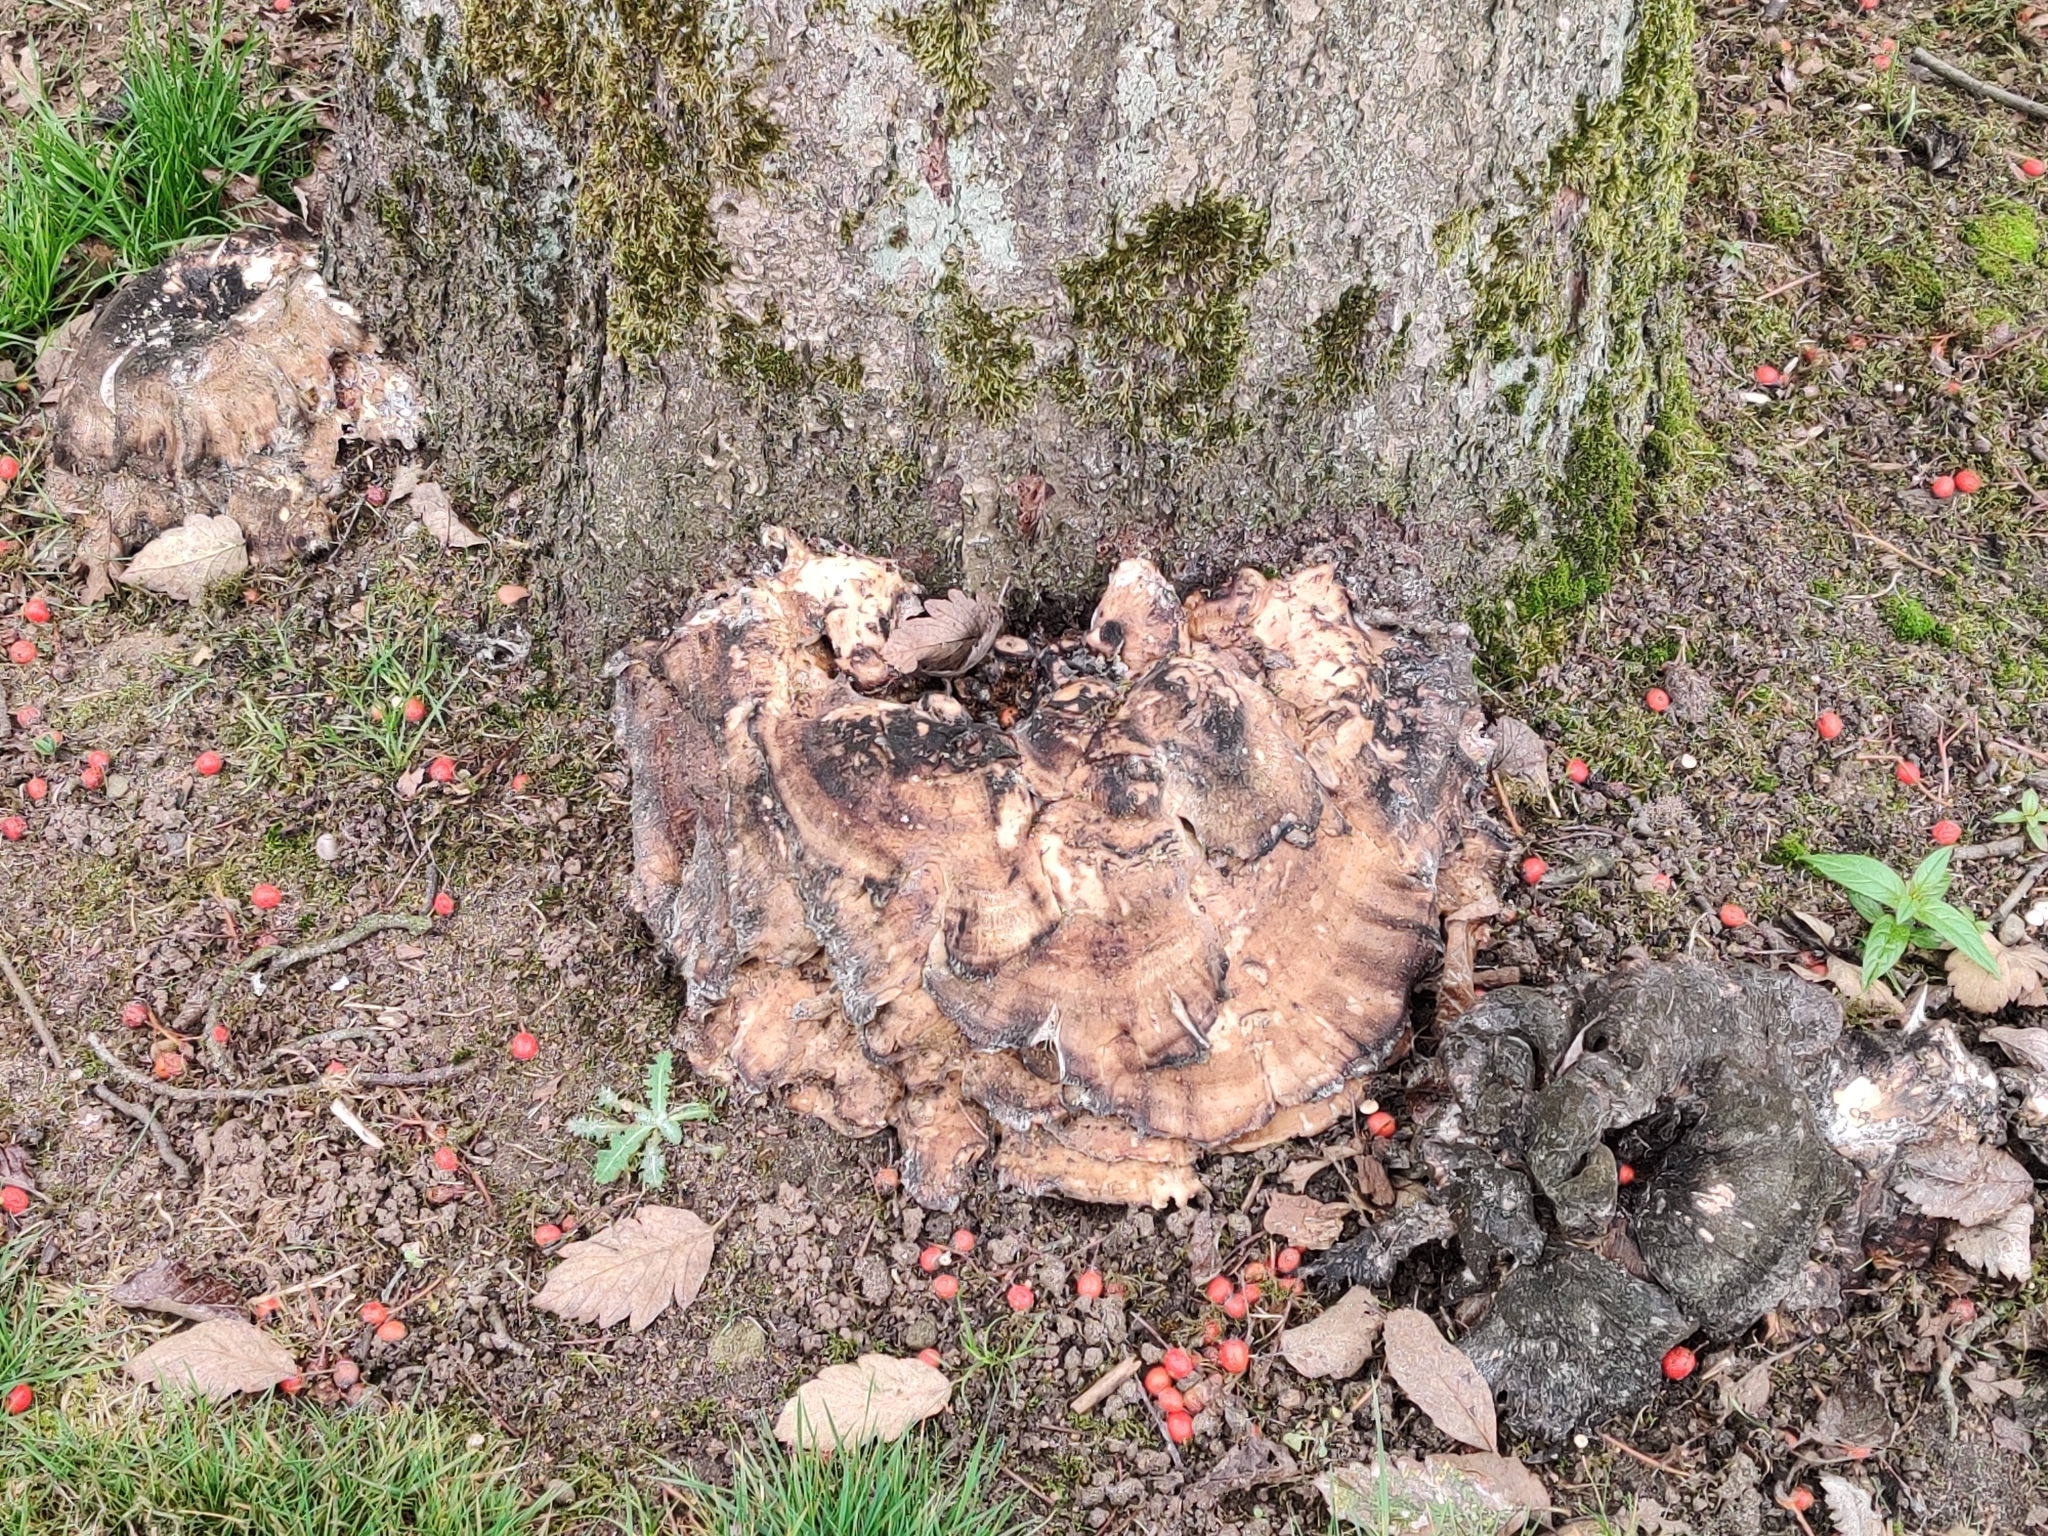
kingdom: Fungi
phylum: Basidiomycota
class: Agaricomycetes
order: Polyporales
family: Meripilaceae
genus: Meripilus
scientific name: Meripilus giganteus
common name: Giant polypore
